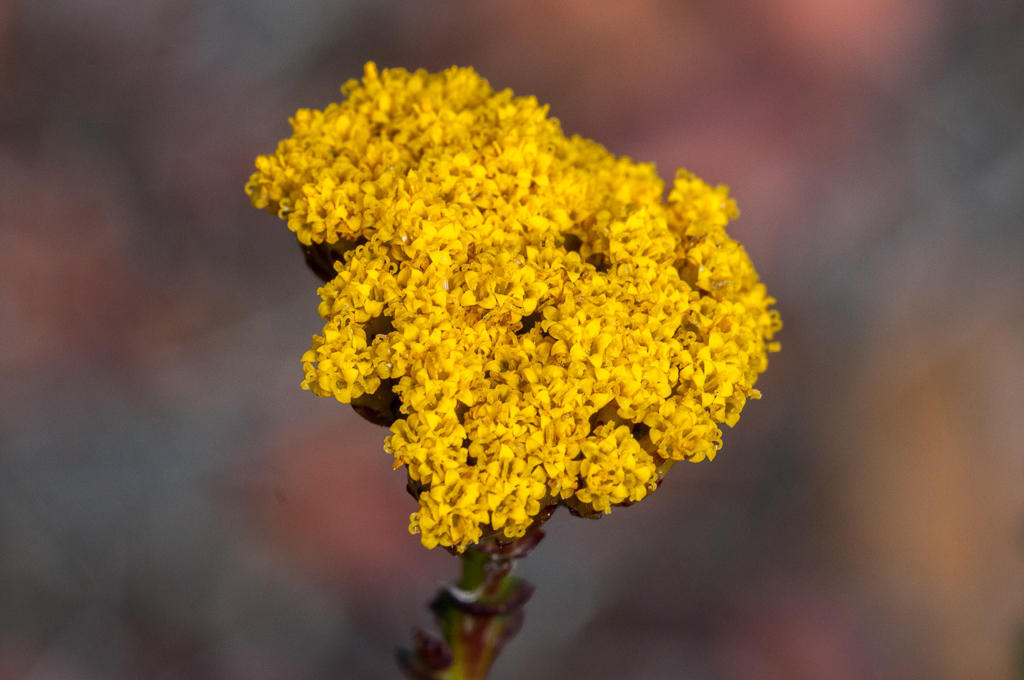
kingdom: Plantae
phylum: Tracheophyta
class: Magnoliopsida
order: Asterales
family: Asteraceae
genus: Athanasia
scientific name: Athanasia dentata
